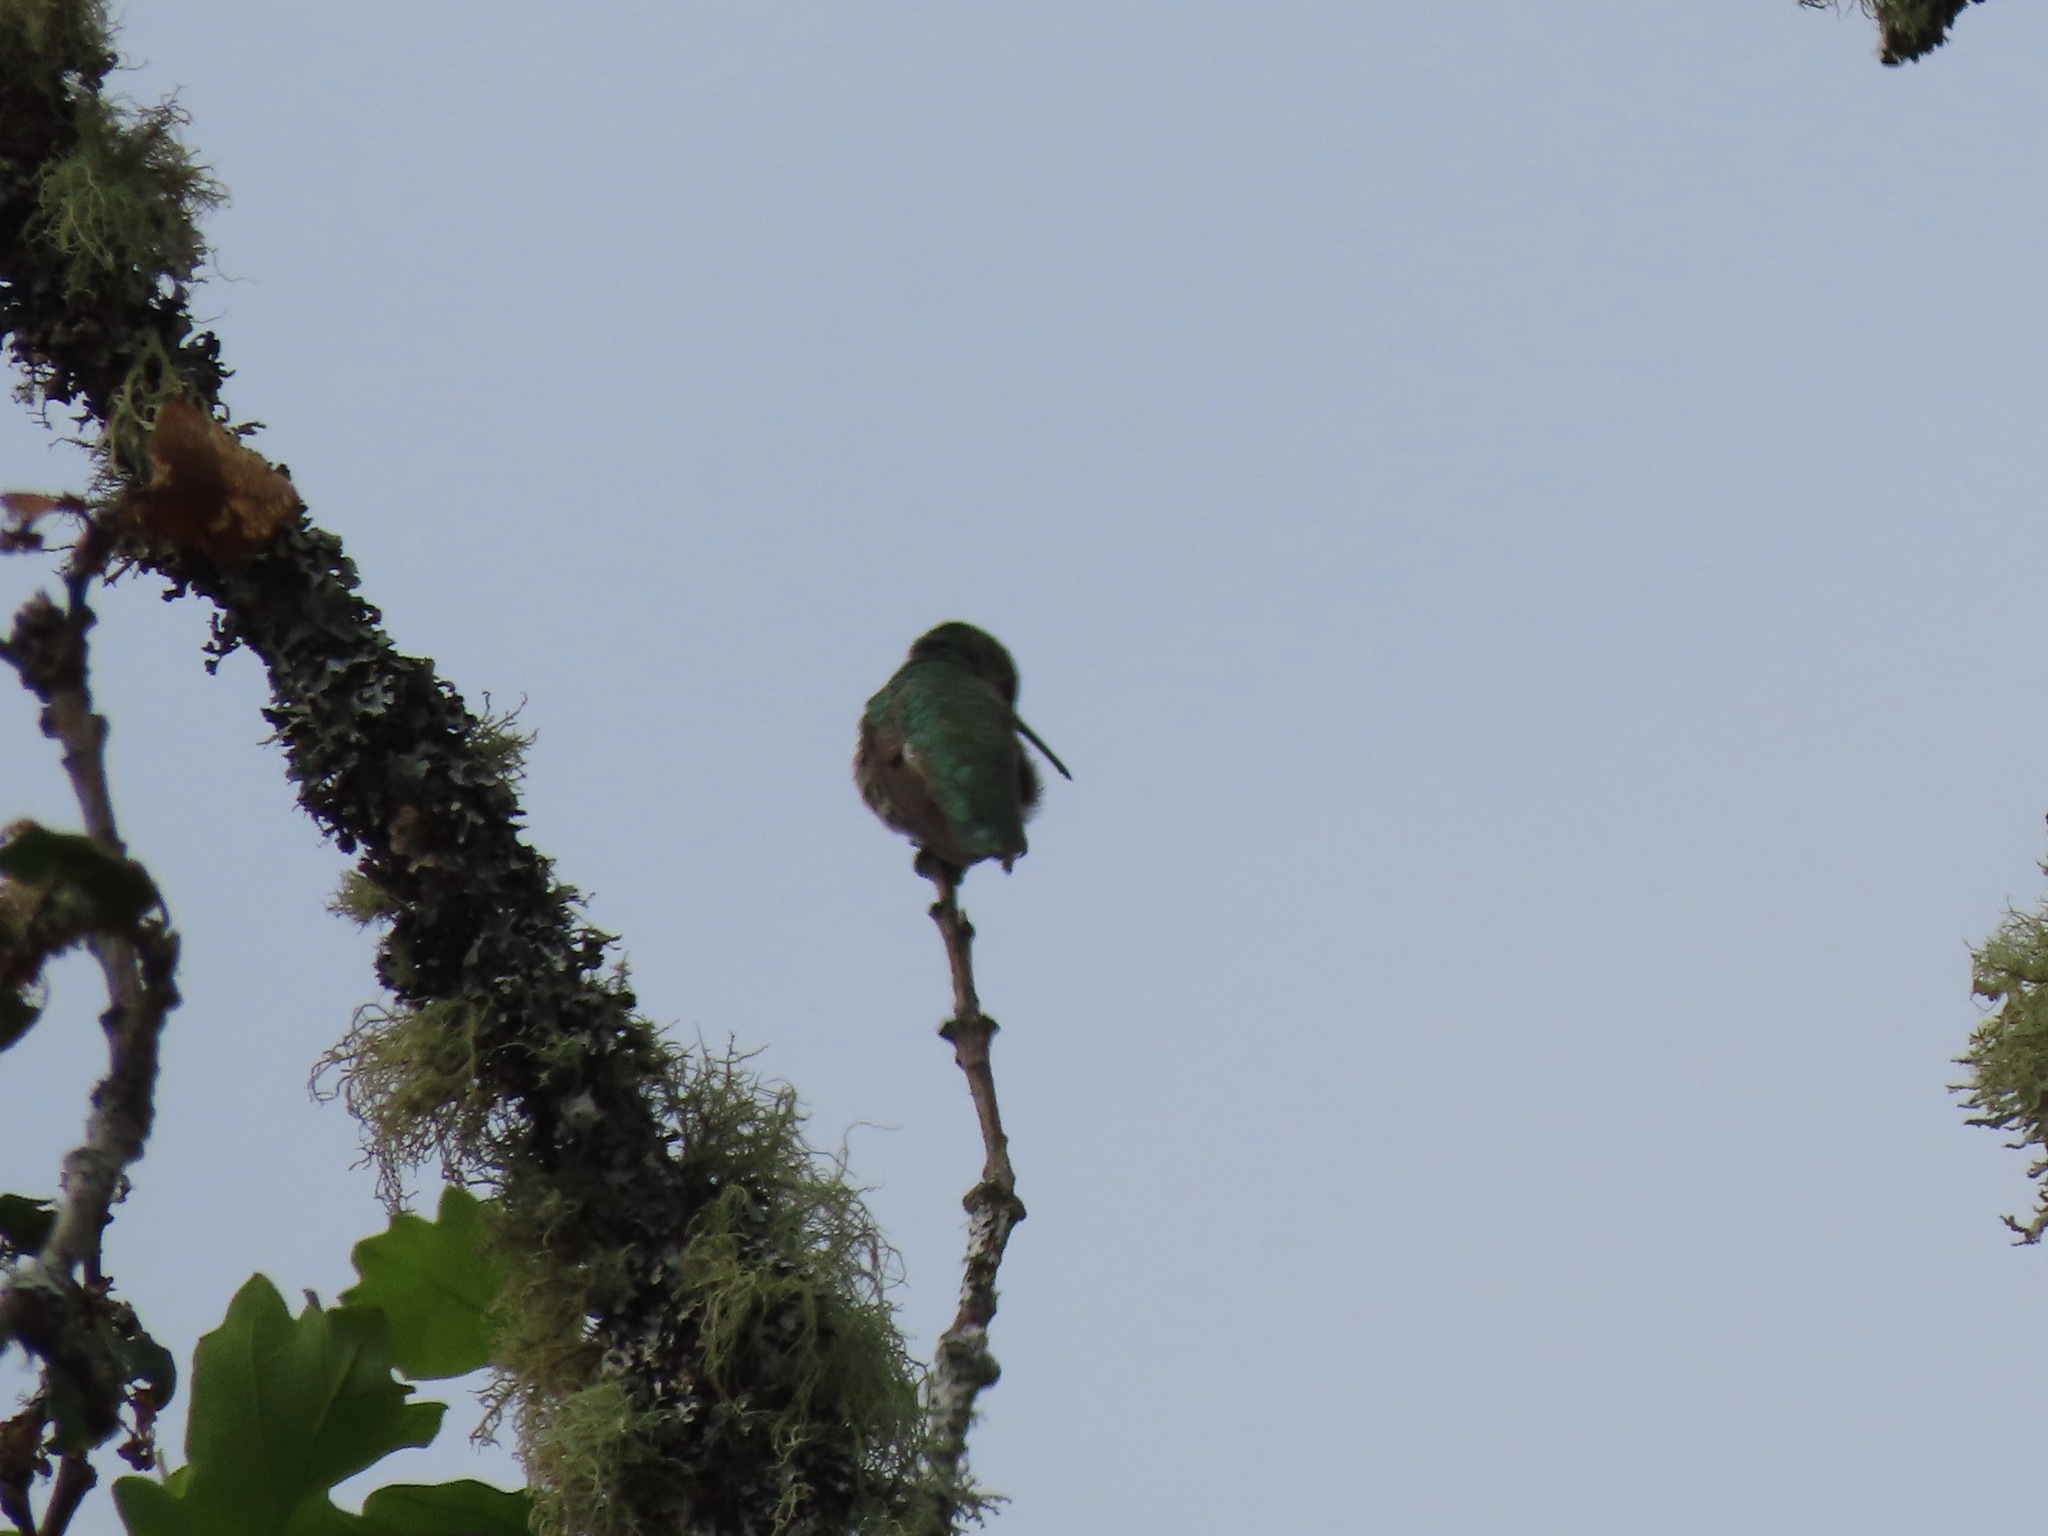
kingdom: Animalia
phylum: Chordata
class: Aves
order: Apodiformes
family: Trochilidae
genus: Calypte
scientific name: Calypte anna
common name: Anna's hummingbird
